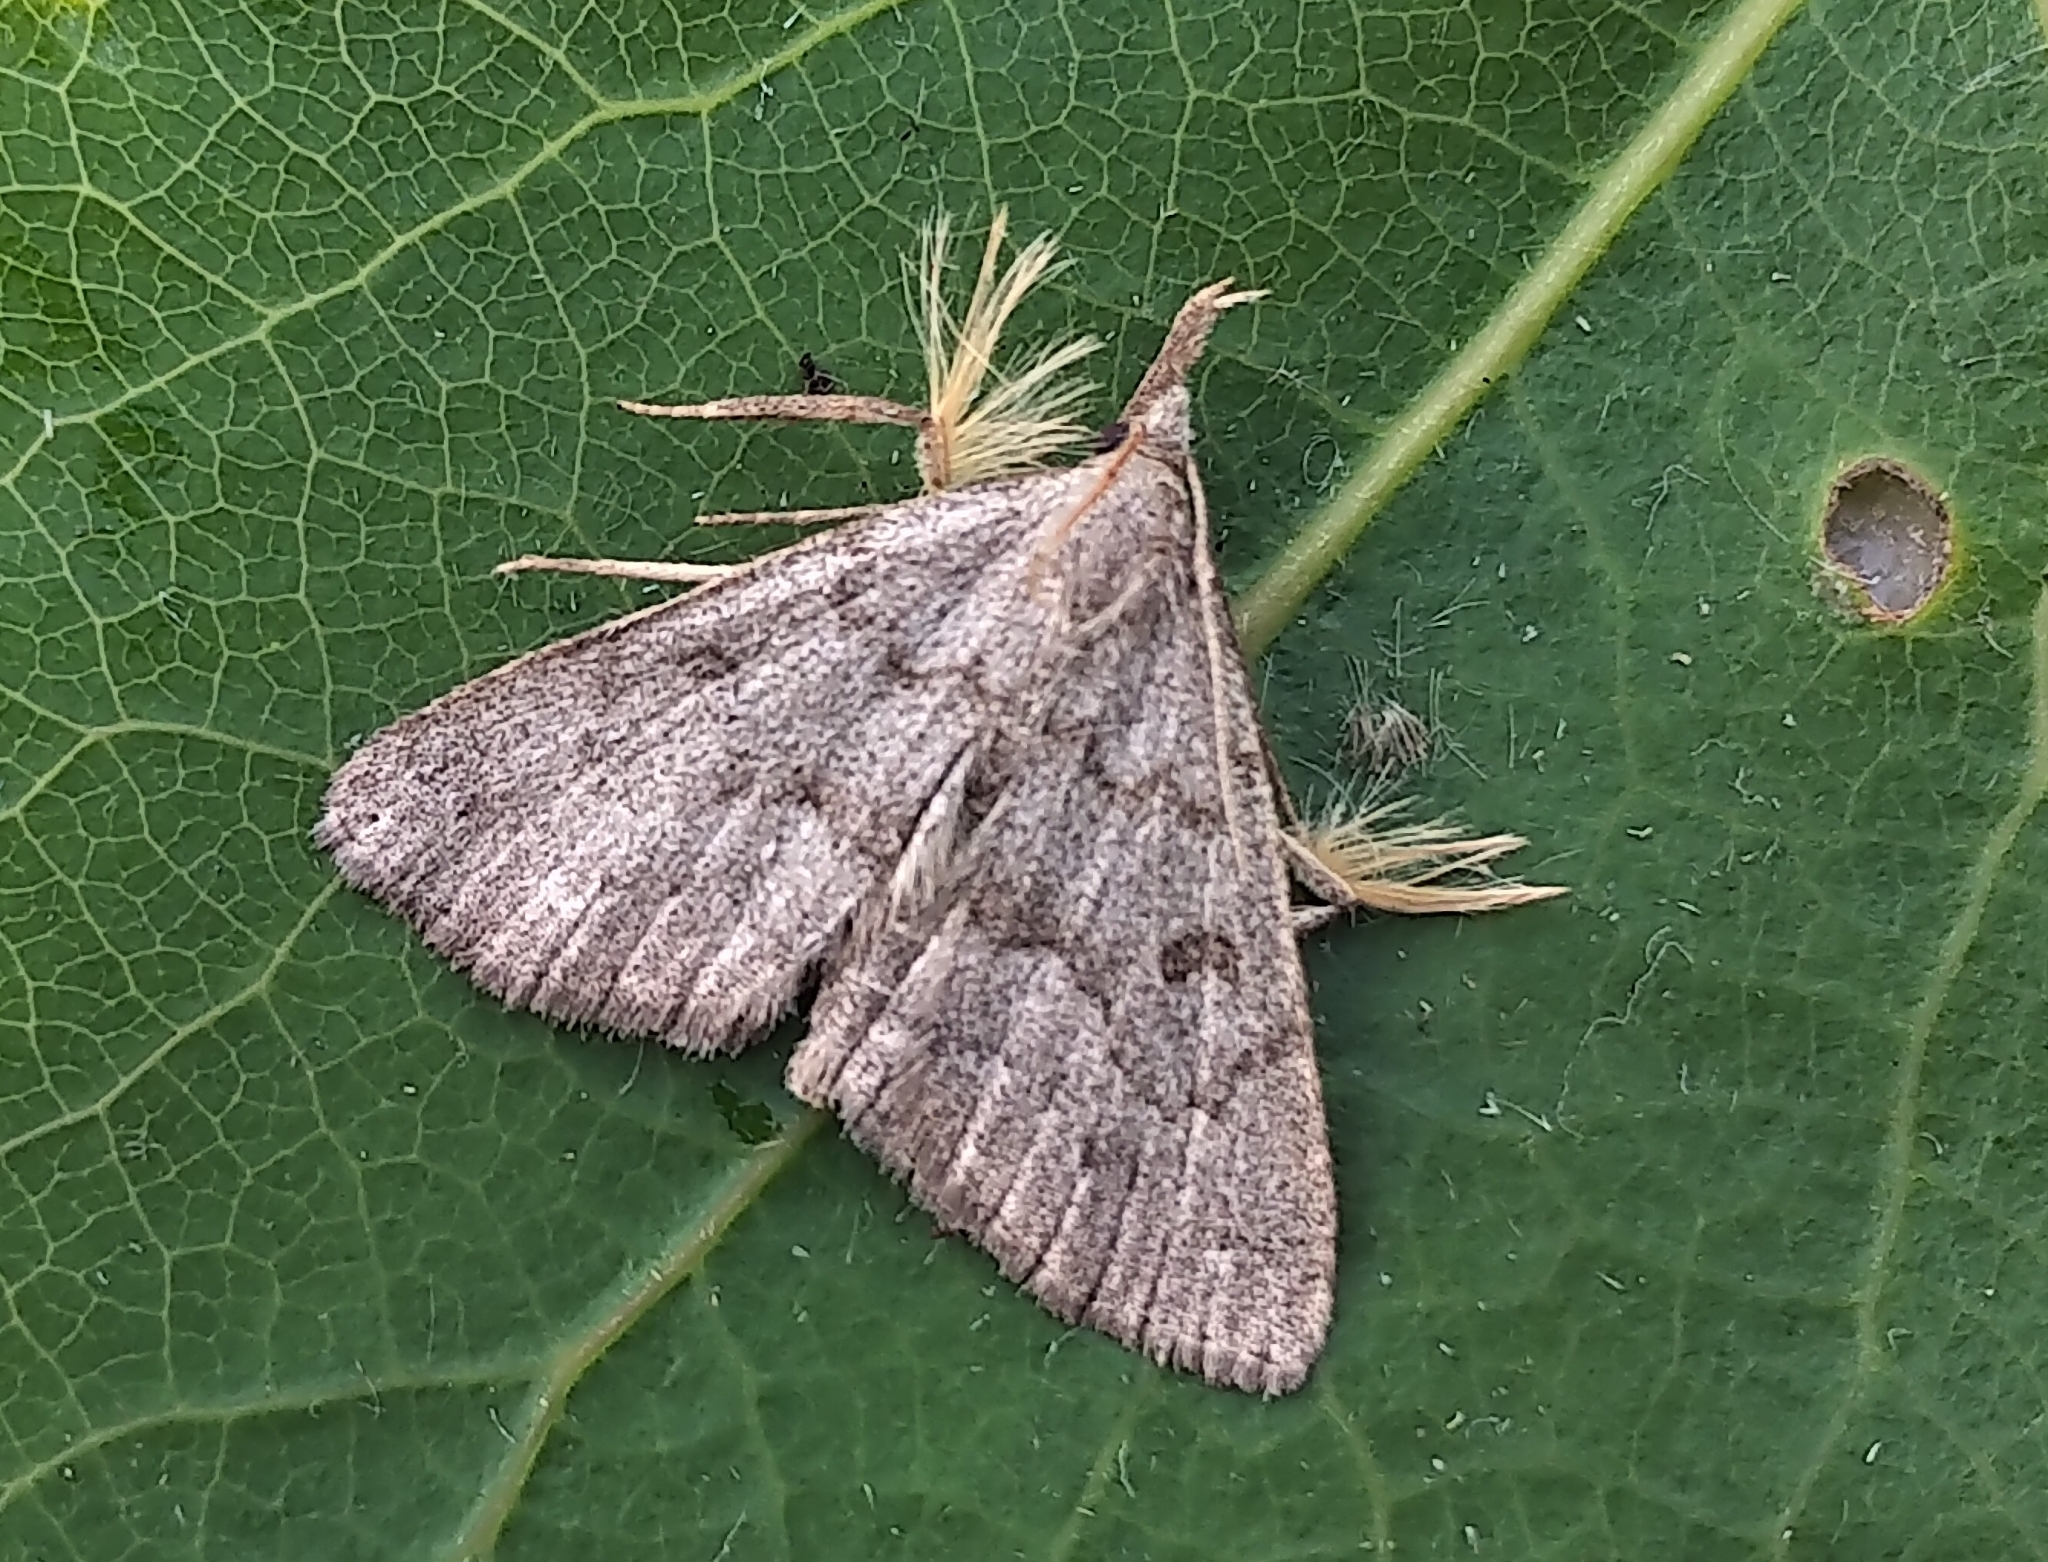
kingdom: Animalia
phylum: Arthropoda
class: Insecta
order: Lepidoptera
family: Erebidae
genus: Macrochilo
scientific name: Macrochilo morbidalis
